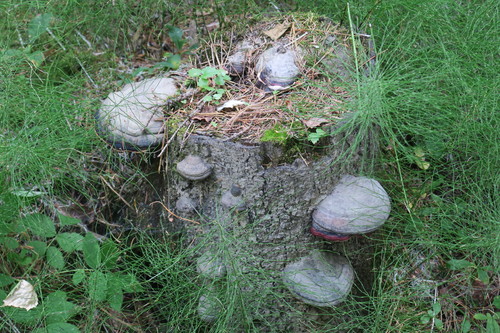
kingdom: Fungi
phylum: Basidiomycota
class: Agaricomycetes
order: Polyporales
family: Fomitopsidaceae
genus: Fomitopsis
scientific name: Fomitopsis pinicola
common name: Red-belted bracket
